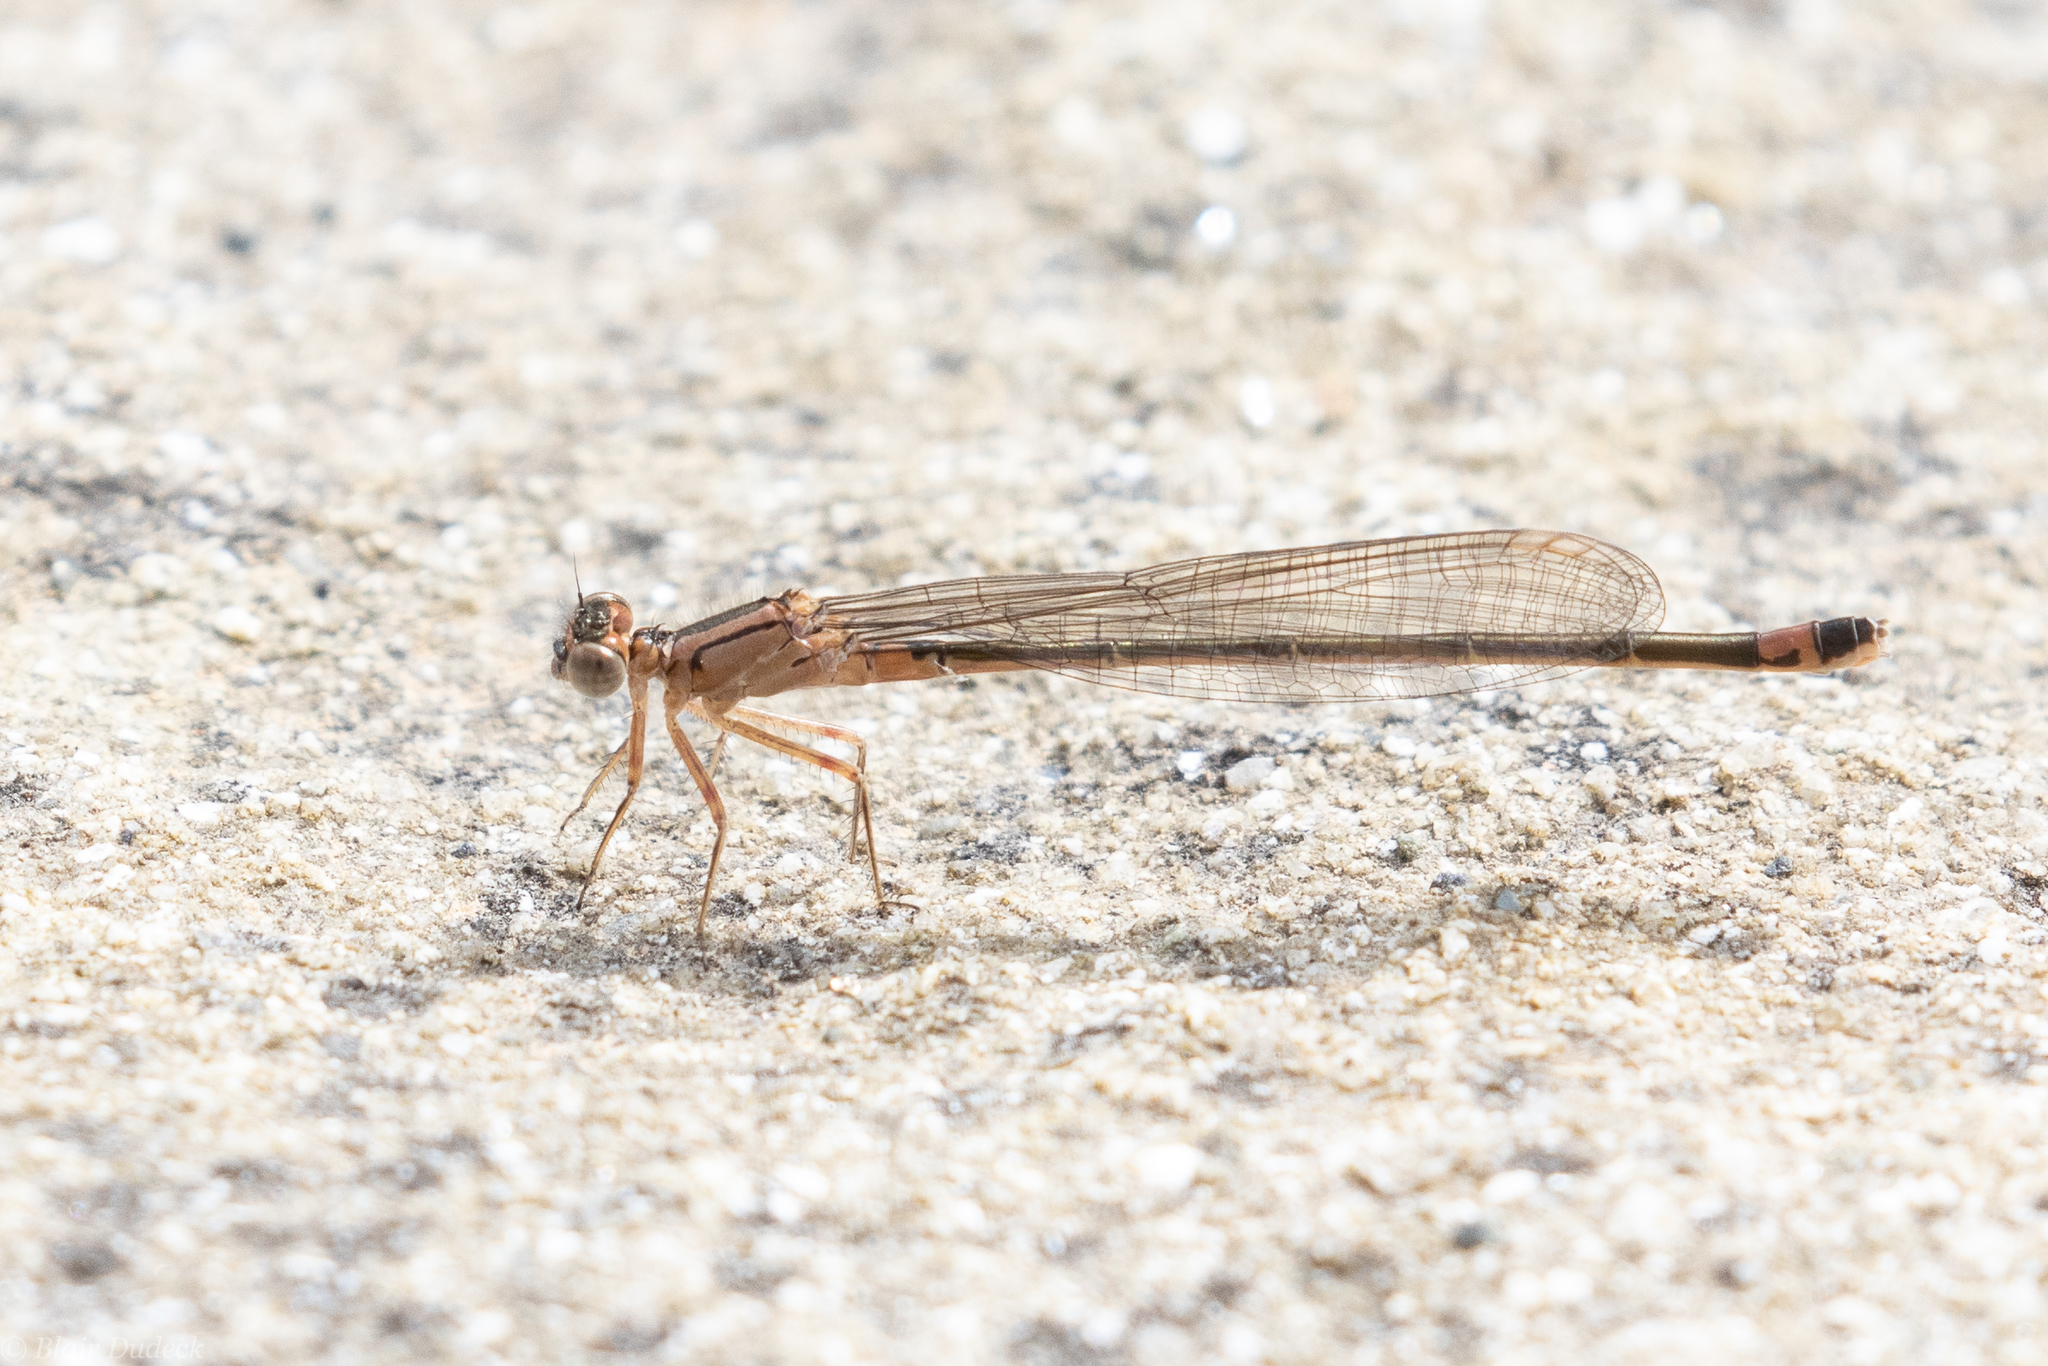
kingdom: Animalia
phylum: Arthropoda
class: Insecta
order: Odonata
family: Coenagrionidae
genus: Ischnura
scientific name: Ischnura cervula
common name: Pacific forktail
